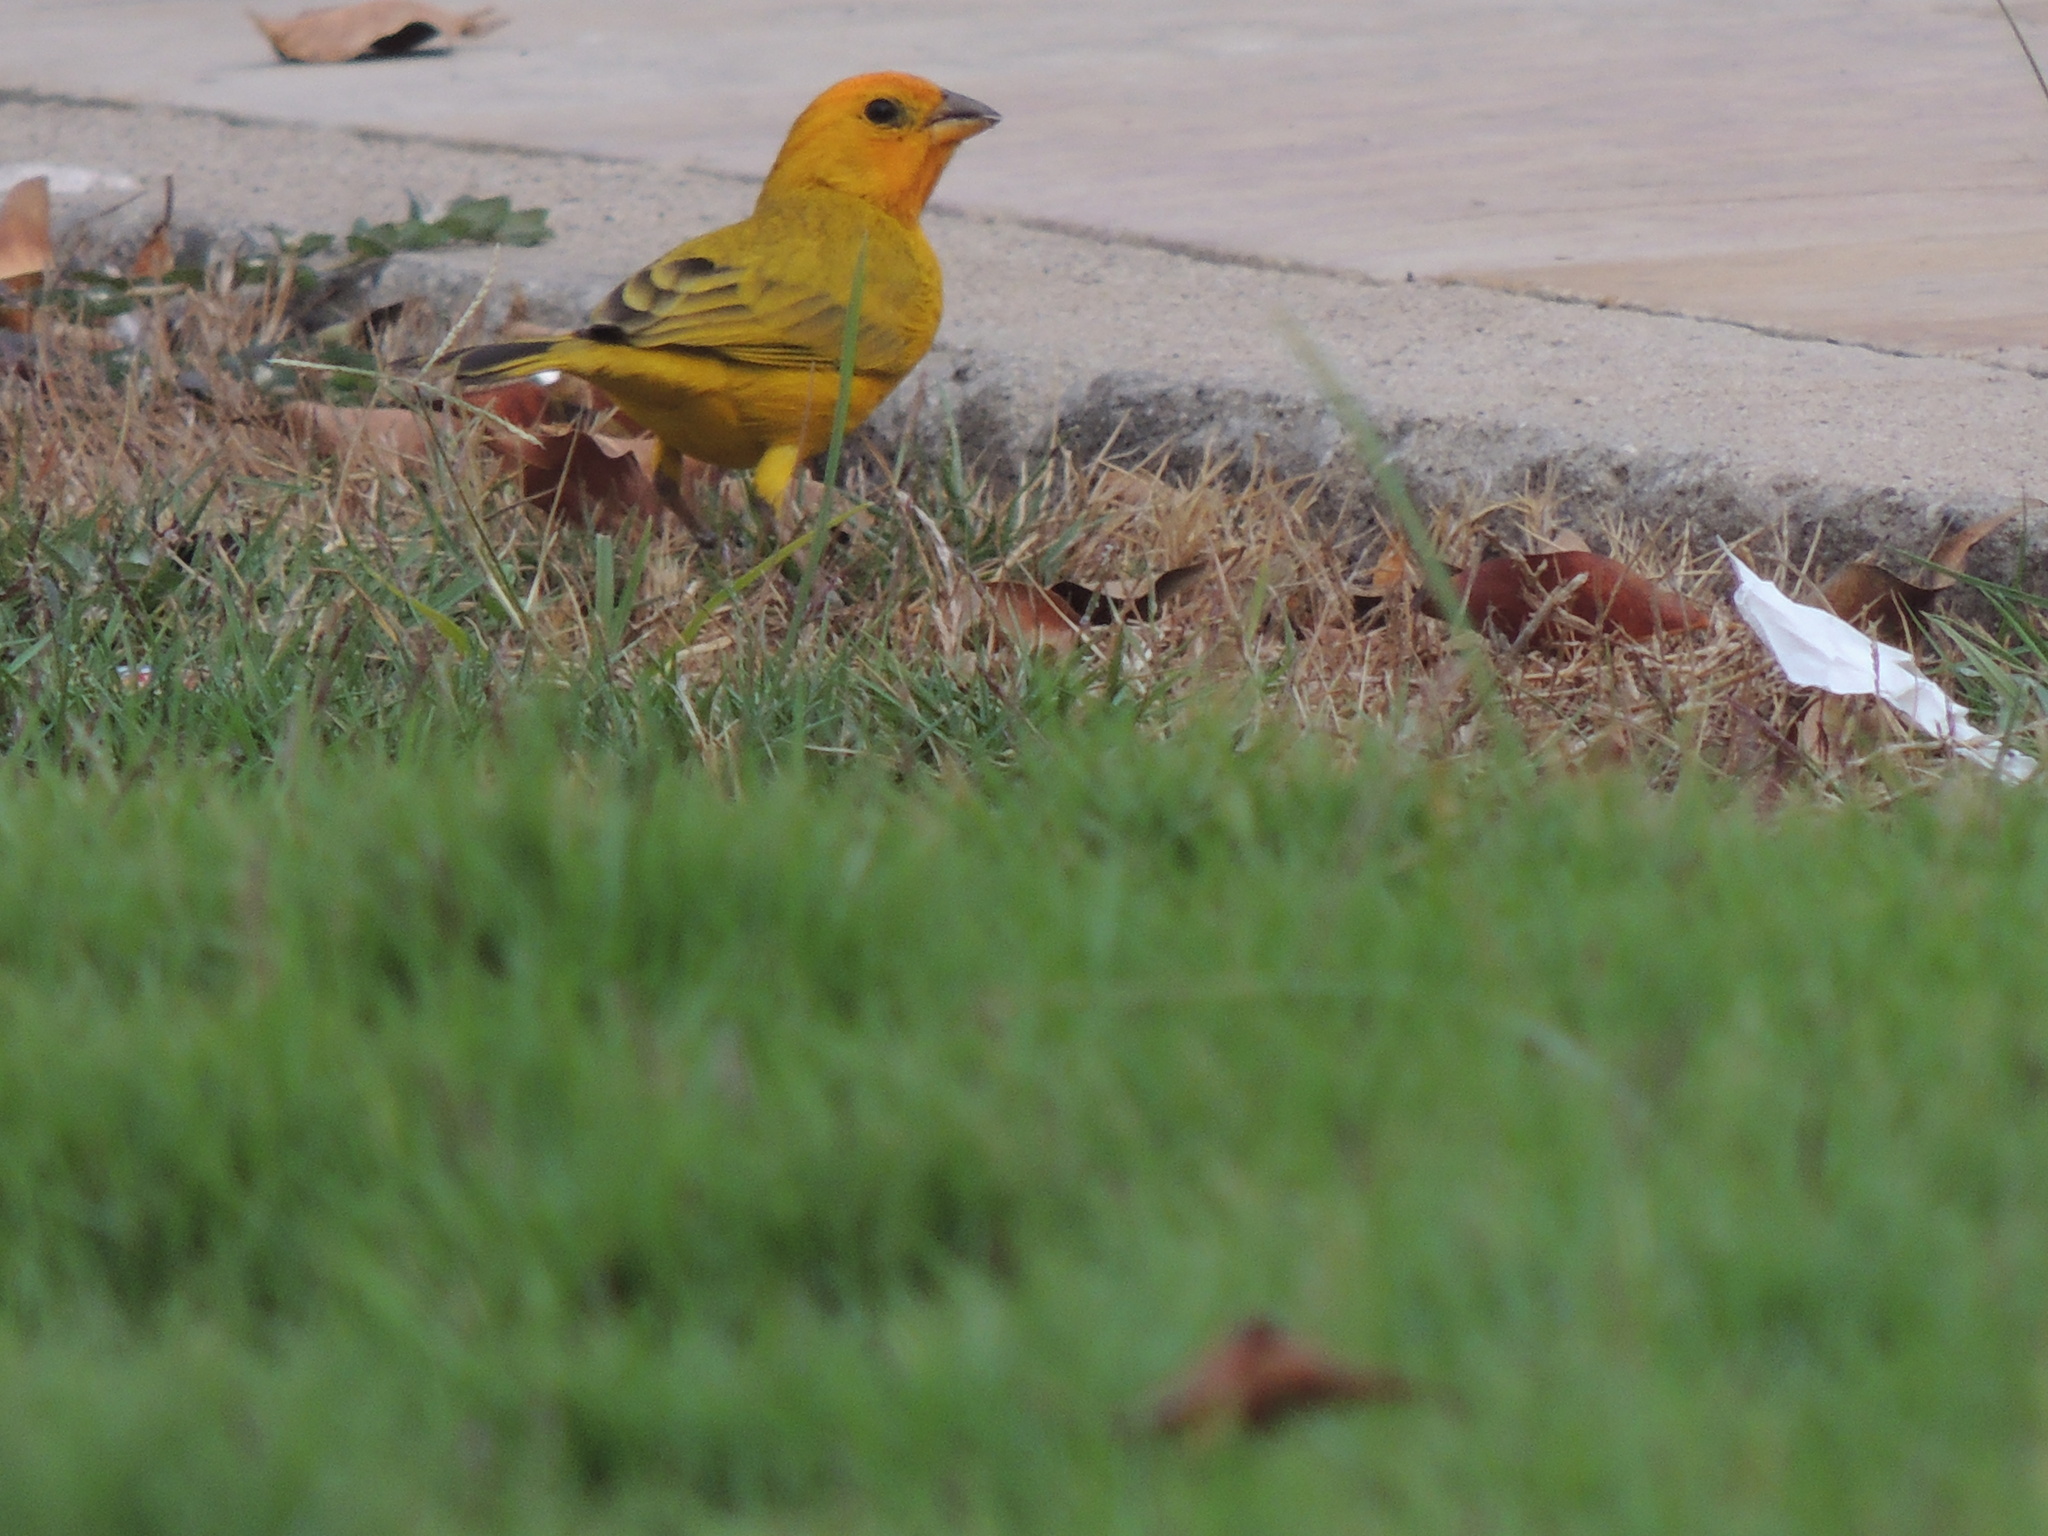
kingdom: Animalia
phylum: Chordata
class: Aves
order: Passeriformes
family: Thraupidae
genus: Sicalis
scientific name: Sicalis flaveola
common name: Saffron finch
